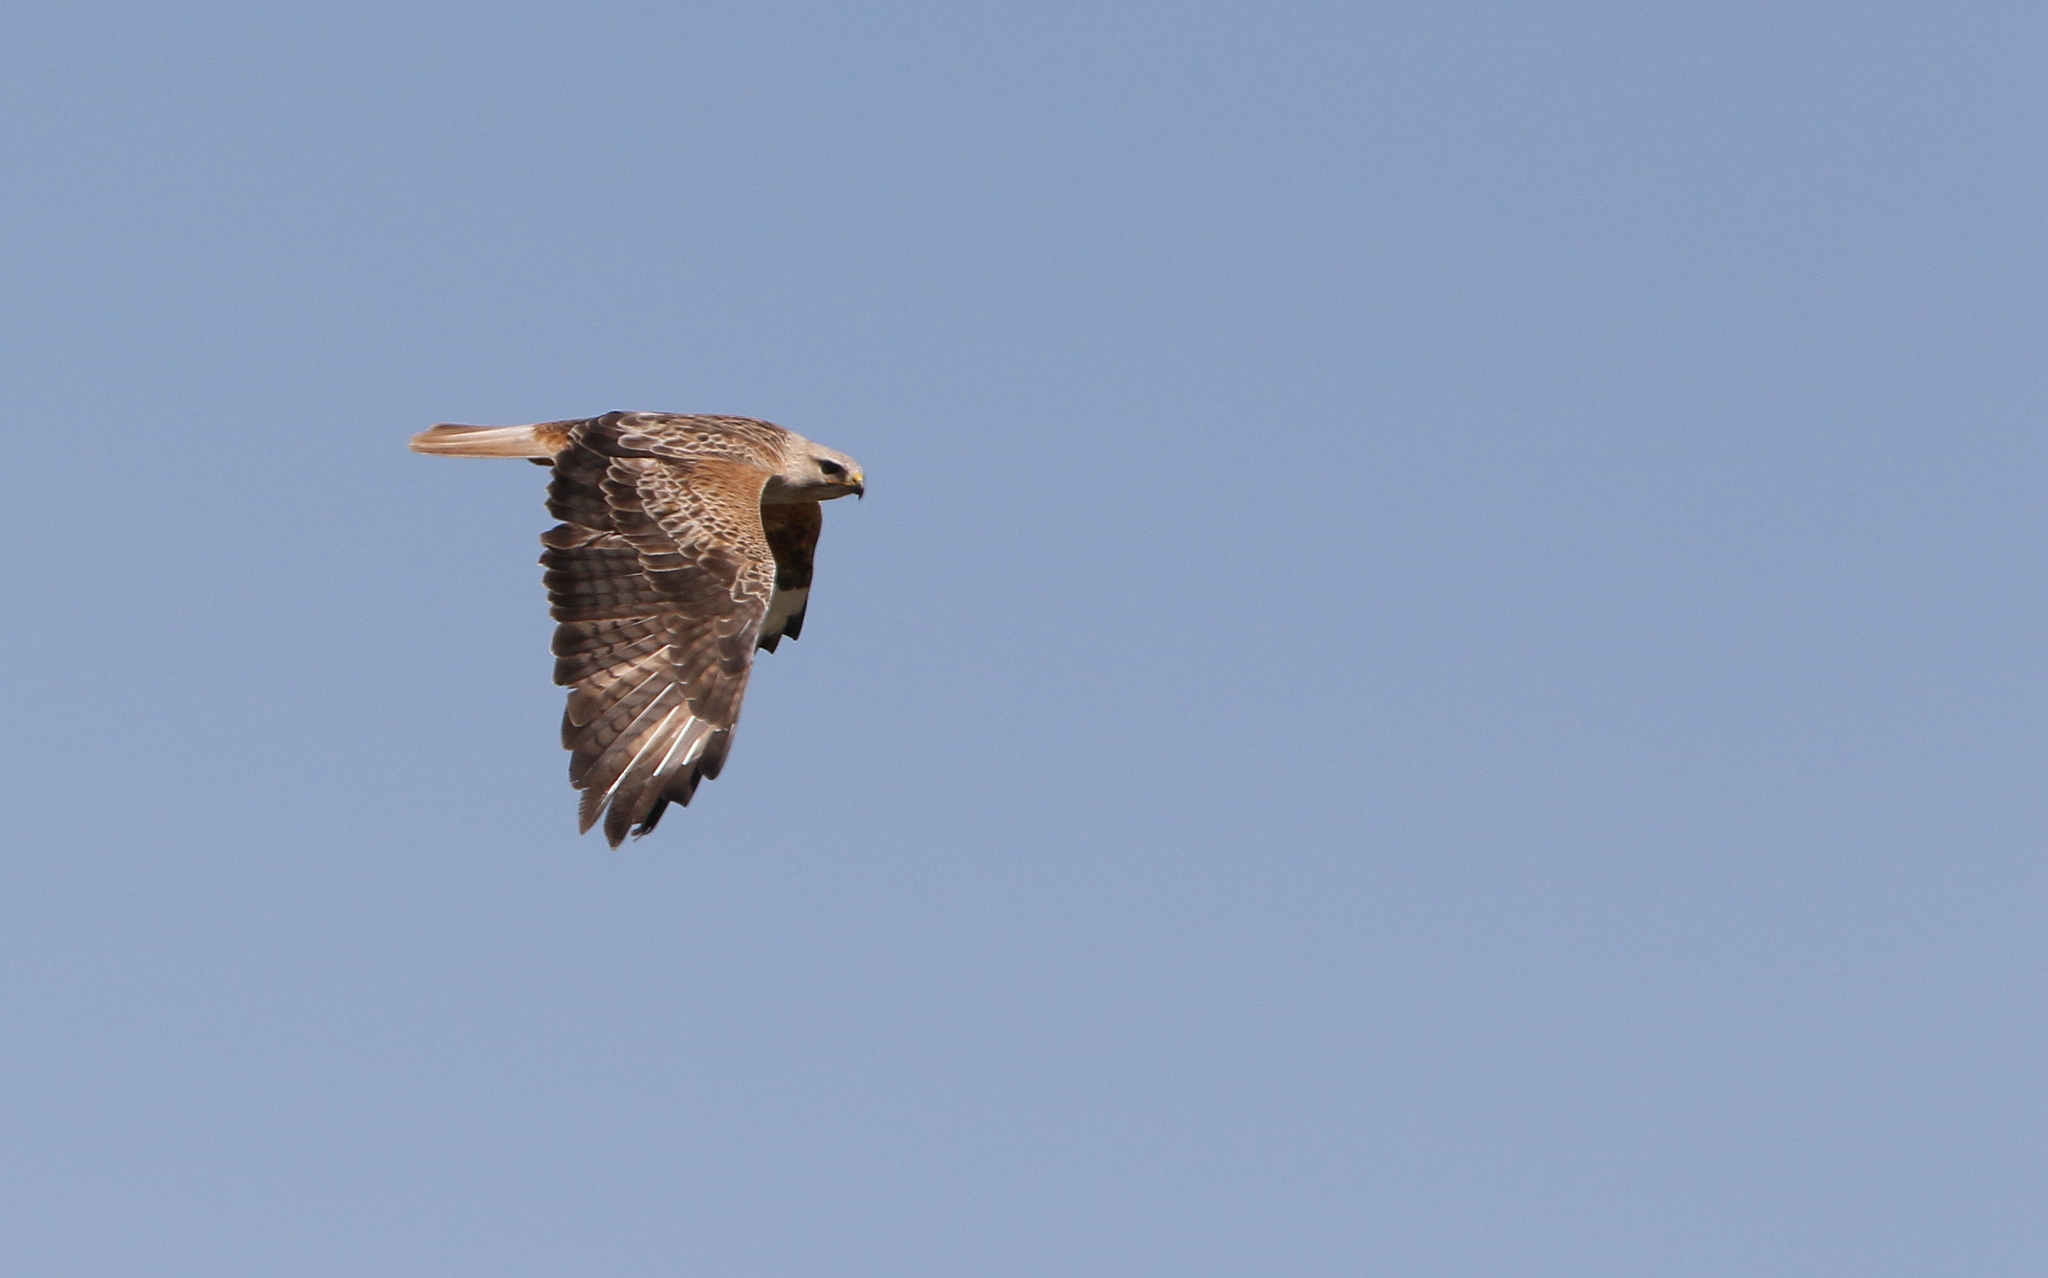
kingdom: Animalia
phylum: Chordata
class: Aves
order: Accipitriformes
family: Accipitridae
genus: Buteo
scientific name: Buteo rufinus
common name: Long-legged buzzard
